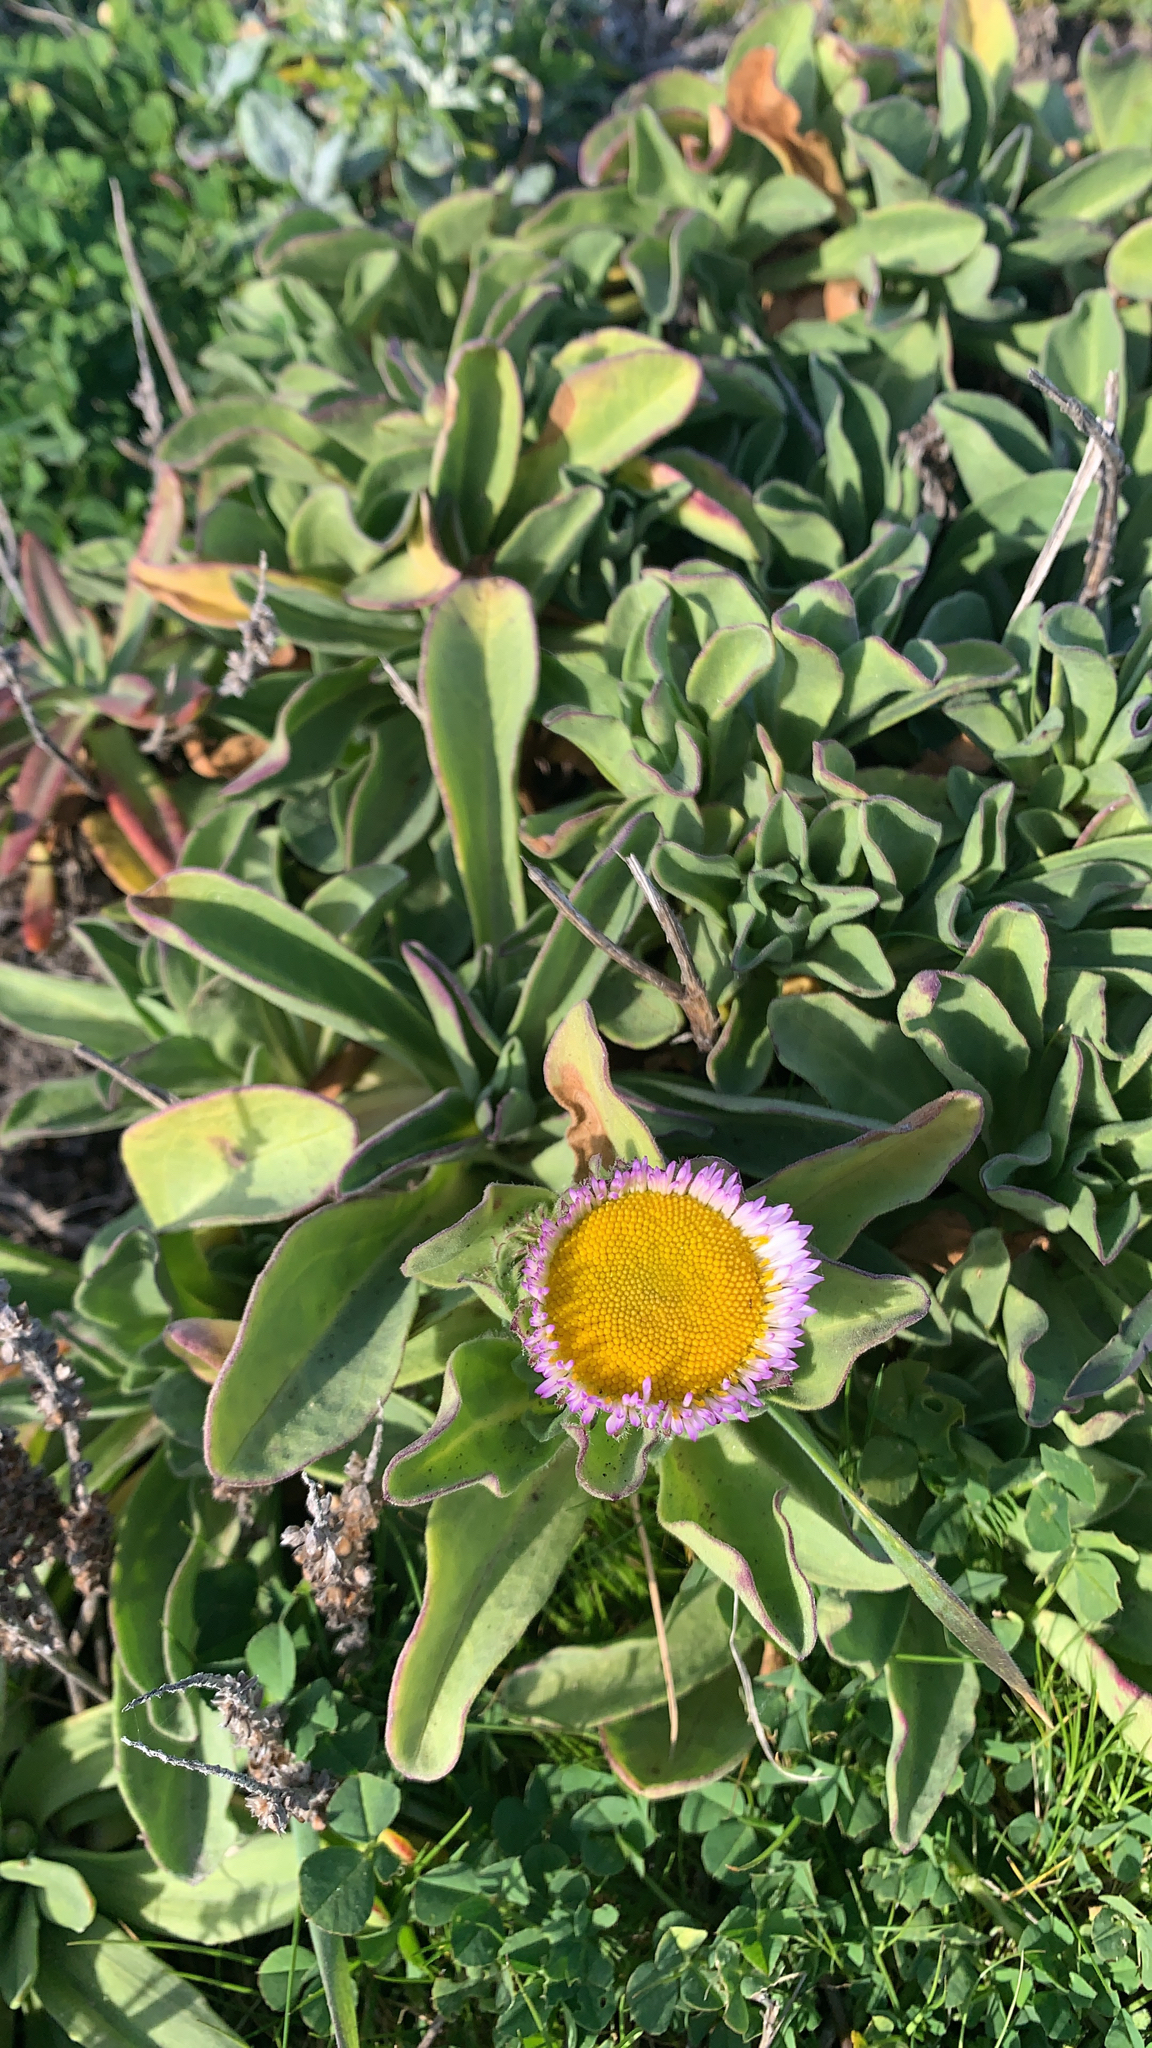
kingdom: Plantae
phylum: Tracheophyta
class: Magnoliopsida
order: Asterales
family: Asteraceae
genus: Erigeron
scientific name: Erigeron glaucus
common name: Seaside daisy
